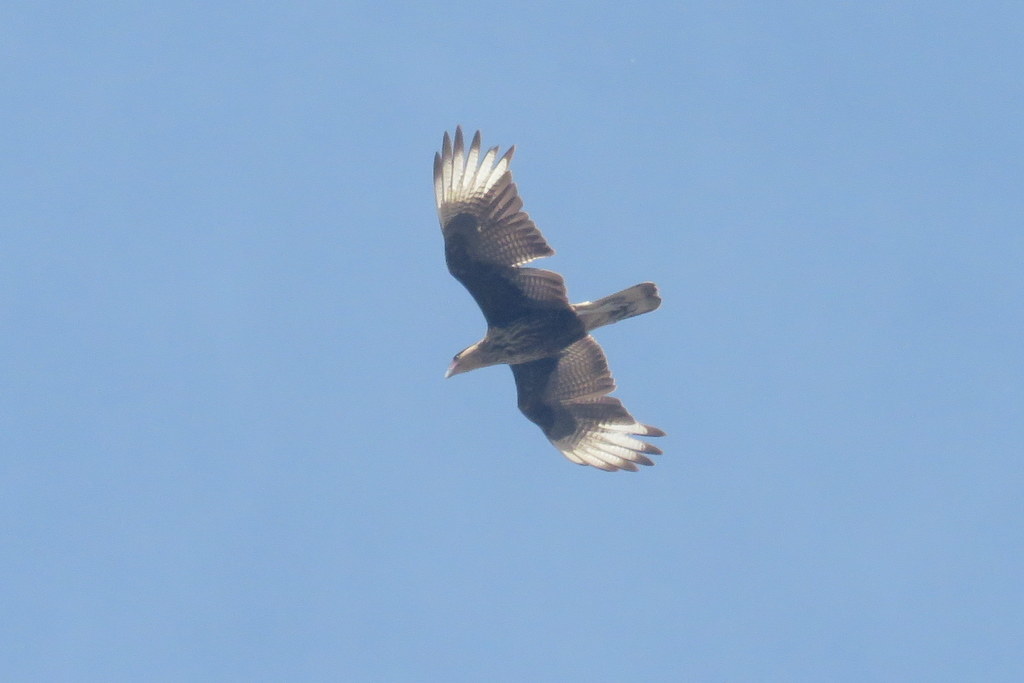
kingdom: Animalia
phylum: Chordata
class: Aves
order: Falconiformes
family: Falconidae
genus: Caracara
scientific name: Caracara plancus
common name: Southern caracara
